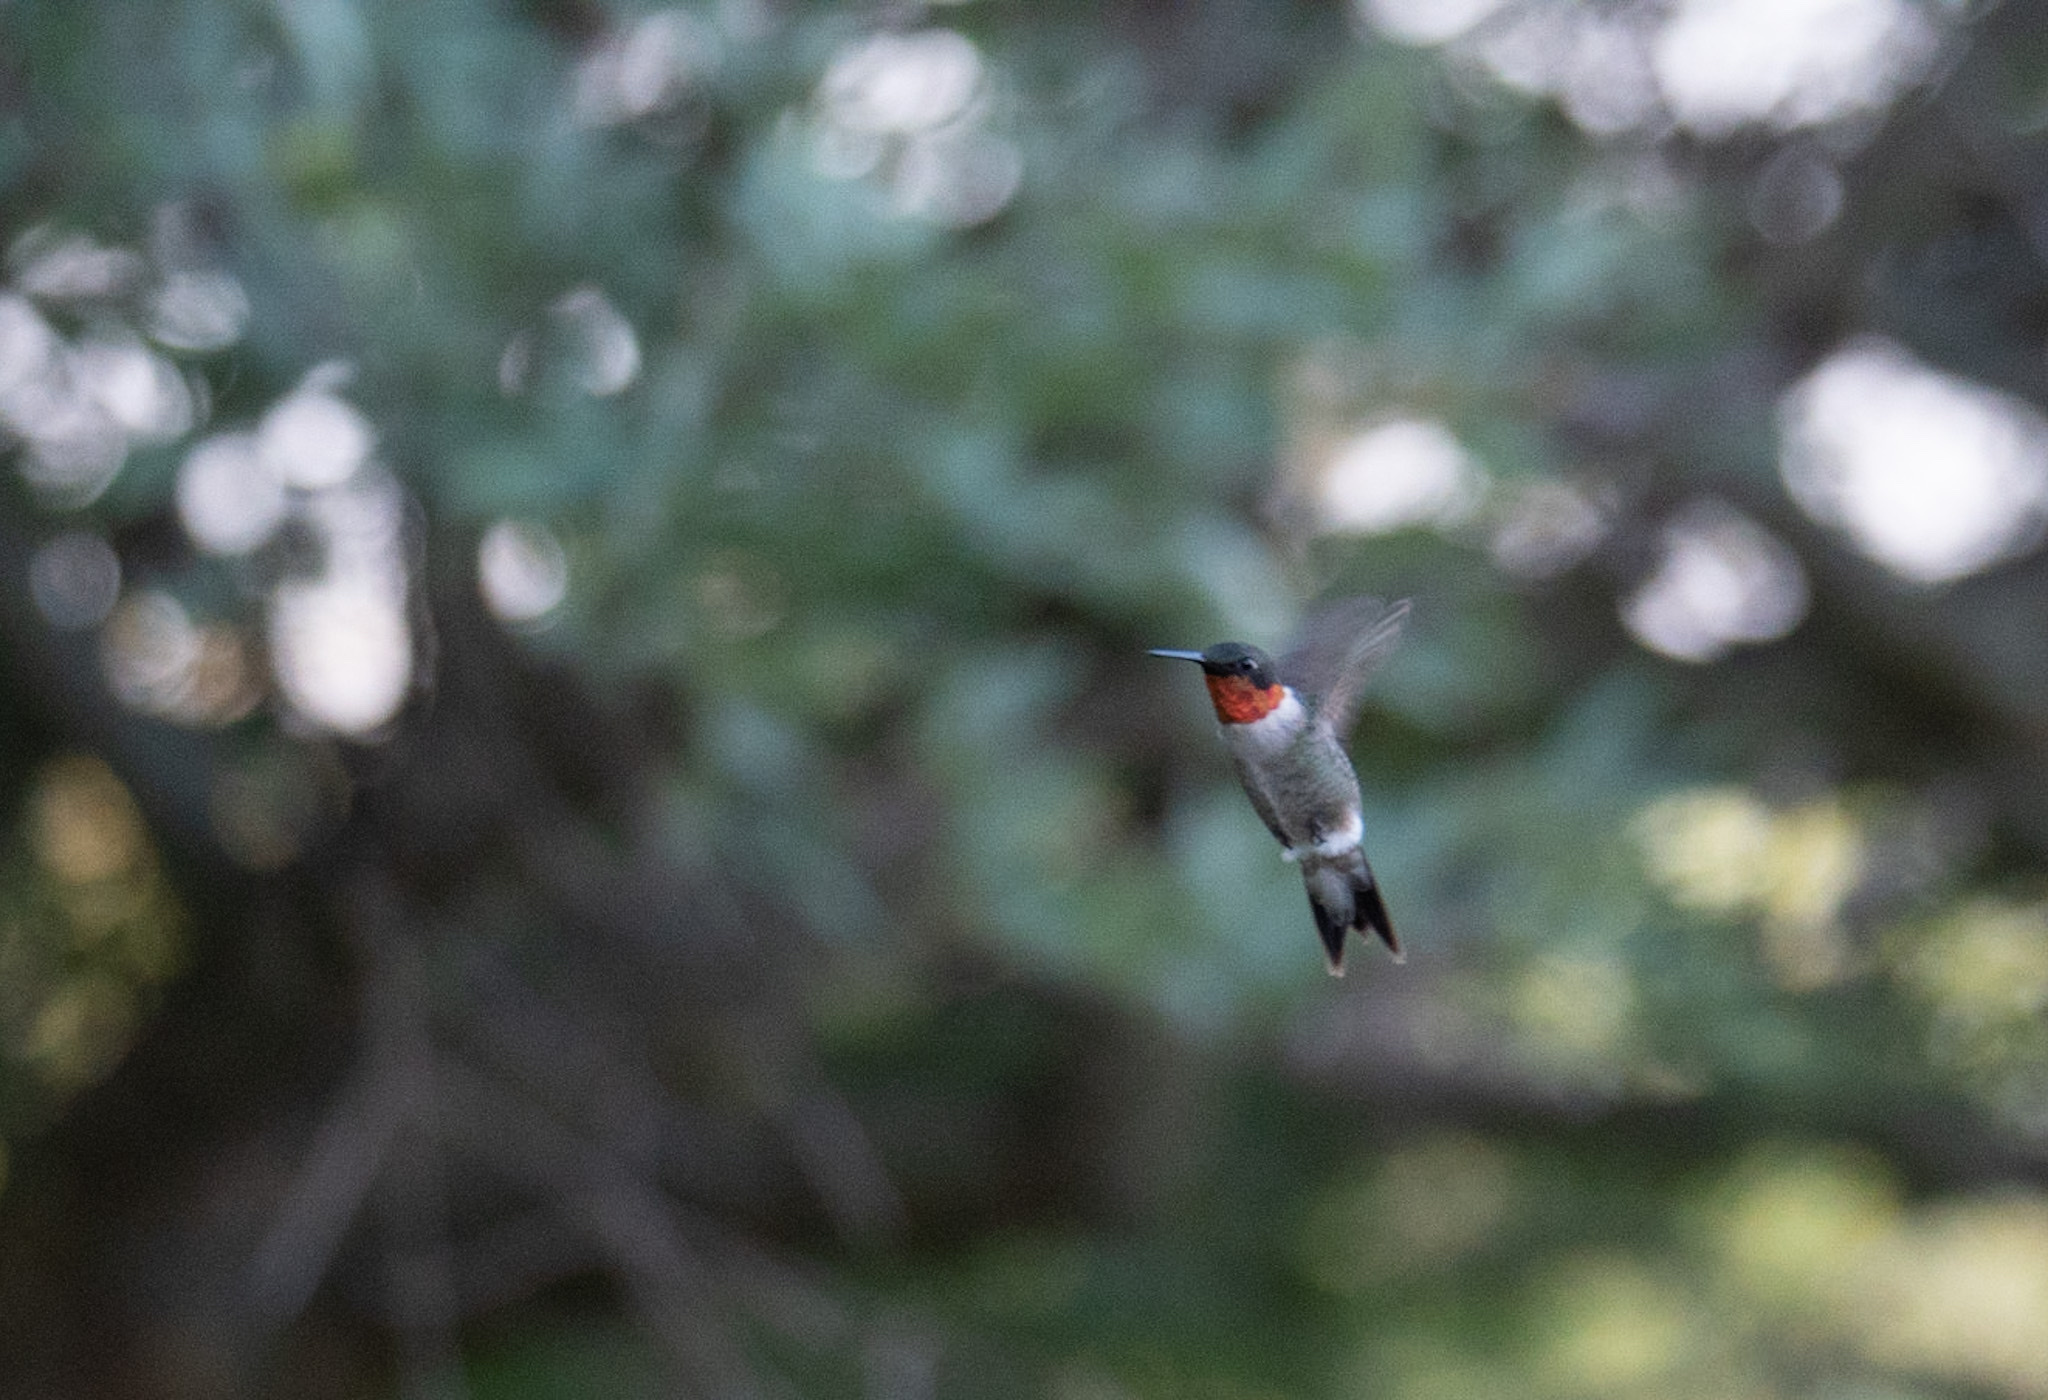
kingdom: Animalia
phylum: Chordata
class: Aves
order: Apodiformes
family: Trochilidae
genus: Archilochus
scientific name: Archilochus colubris
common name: Ruby-throated hummingbird
